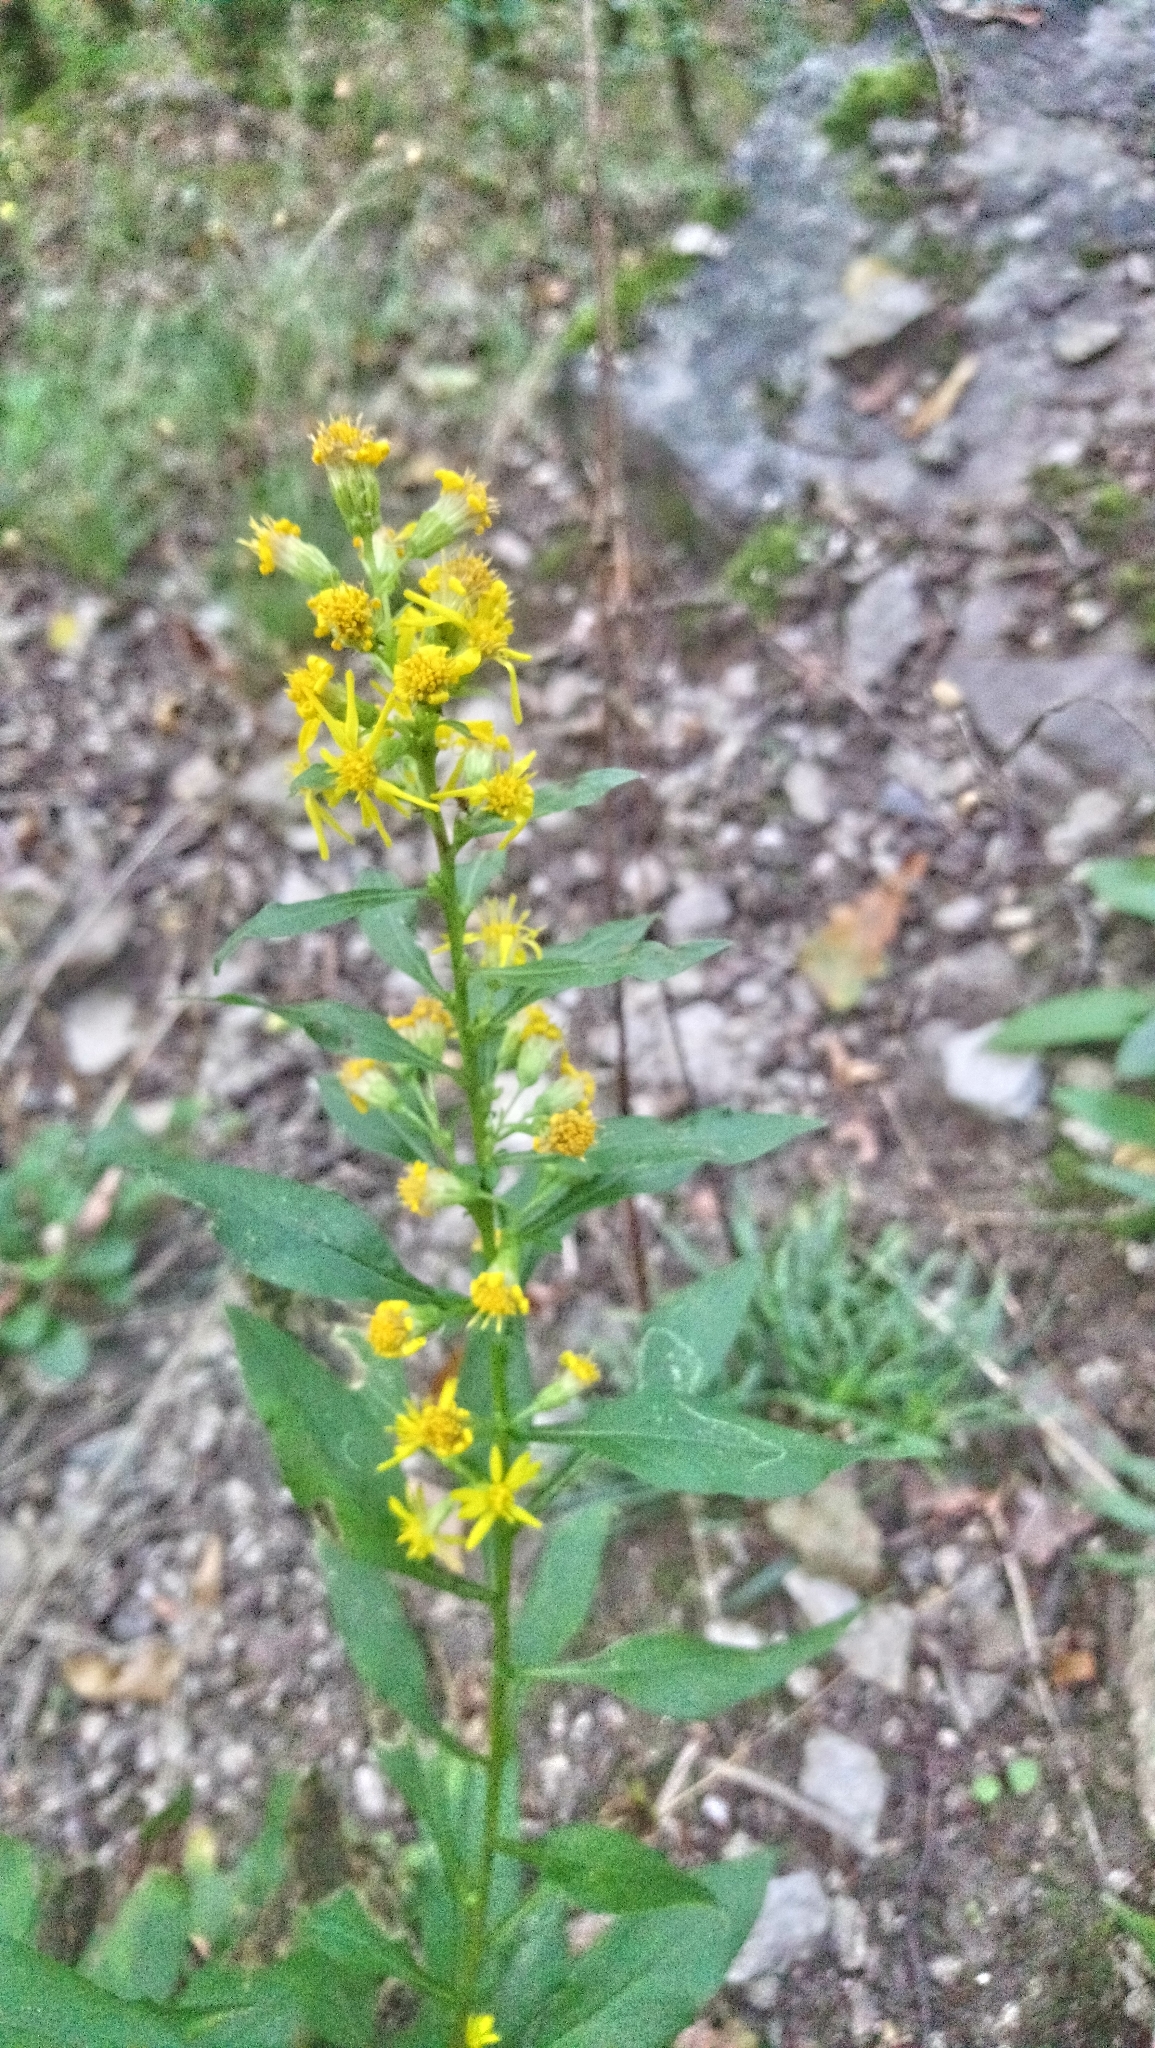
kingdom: Plantae
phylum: Tracheophyta
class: Magnoliopsida
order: Asterales
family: Asteraceae
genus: Solidago
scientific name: Solidago virgaurea
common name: Goldenrod
